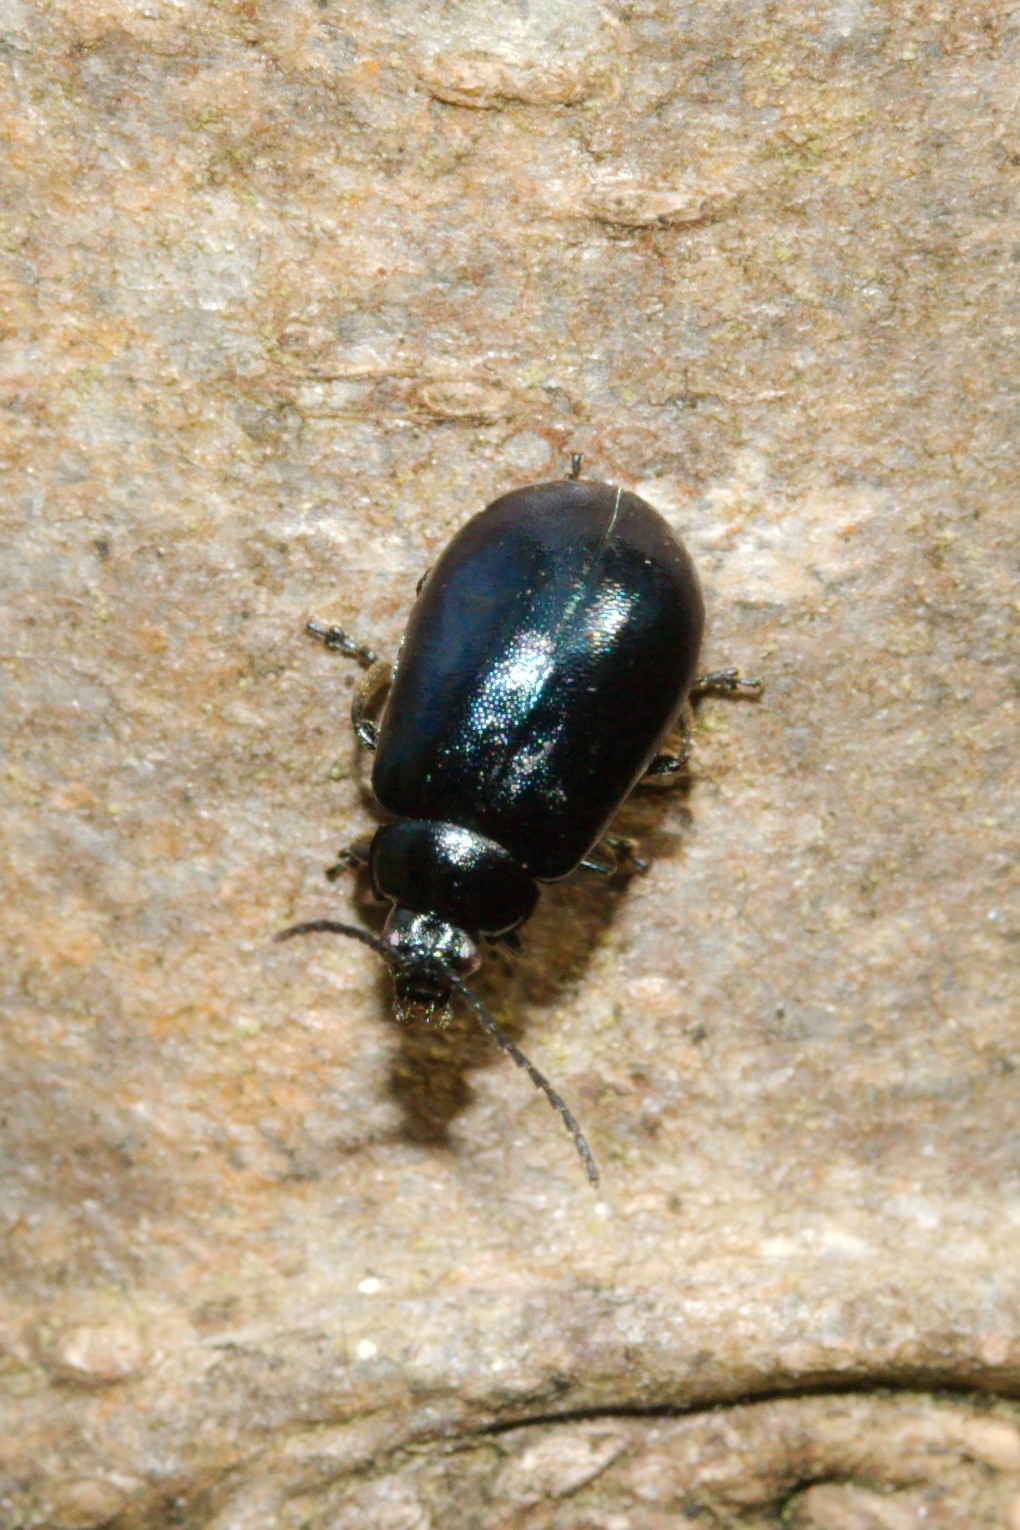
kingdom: Animalia
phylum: Arthropoda
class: Insecta
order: Coleoptera
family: Chrysomelidae
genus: Agelastica
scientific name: Agelastica alni
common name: Alder leaf beetle
